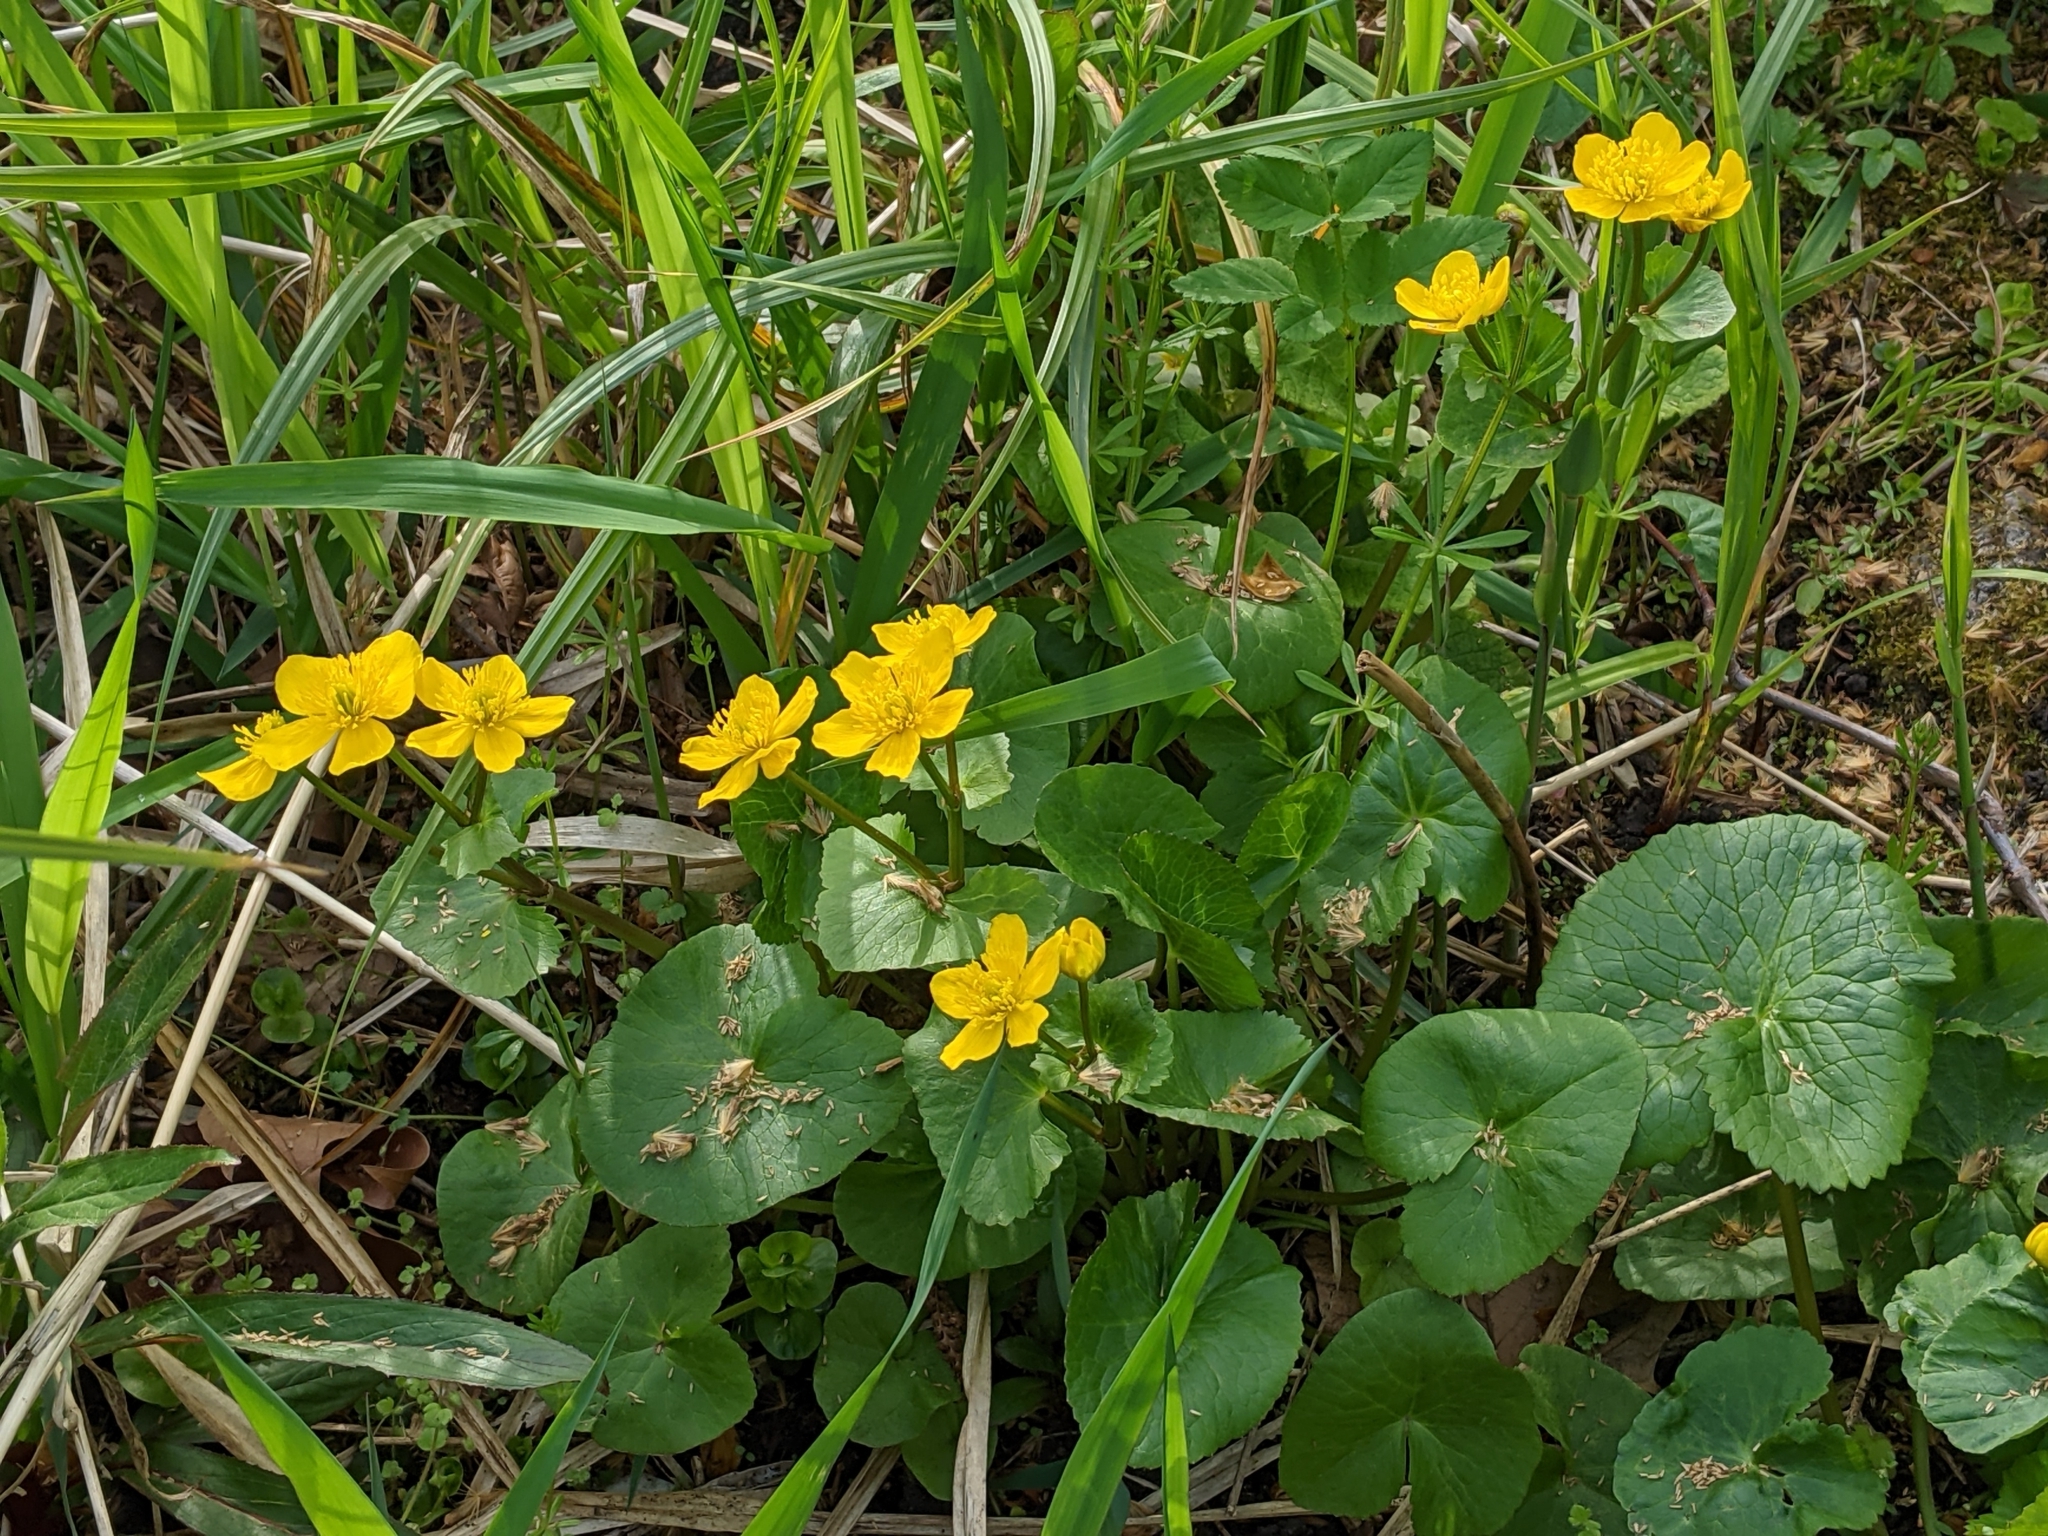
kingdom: Plantae
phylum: Tracheophyta
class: Magnoliopsida
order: Ranunculales
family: Ranunculaceae
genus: Caltha
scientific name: Caltha palustris
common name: Marsh marigold
